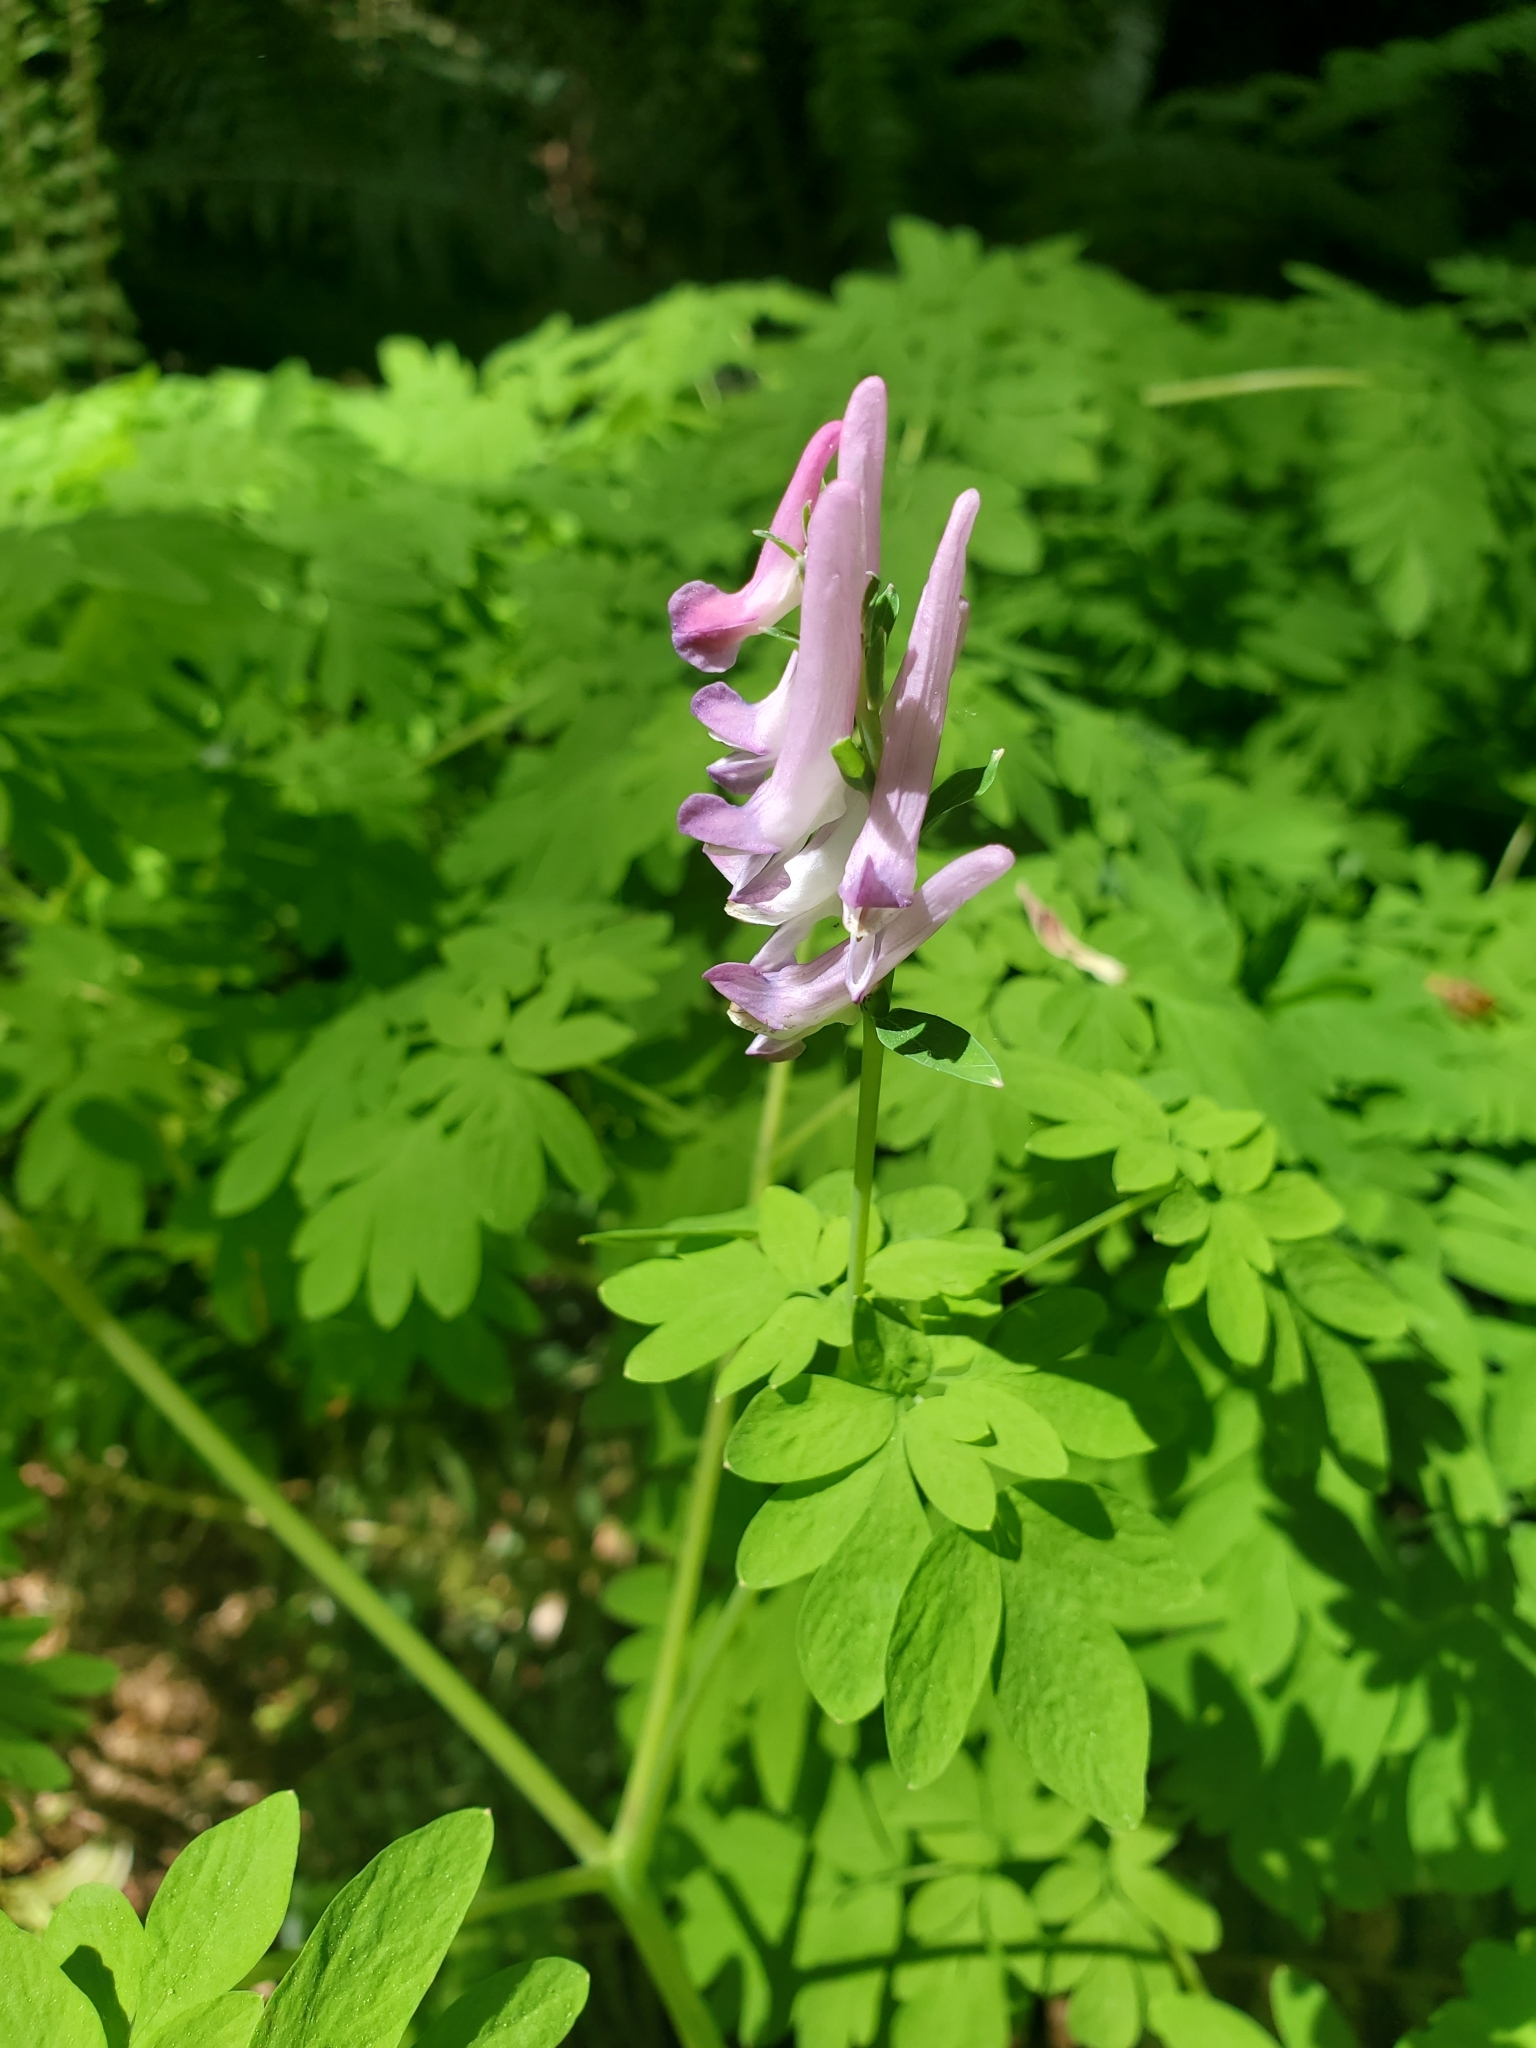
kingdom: Plantae
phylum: Tracheophyta
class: Magnoliopsida
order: Ranunculales
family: Papaveraceae
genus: Corydalis
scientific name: Corydalis scouleri
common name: Scouler's corydalis
